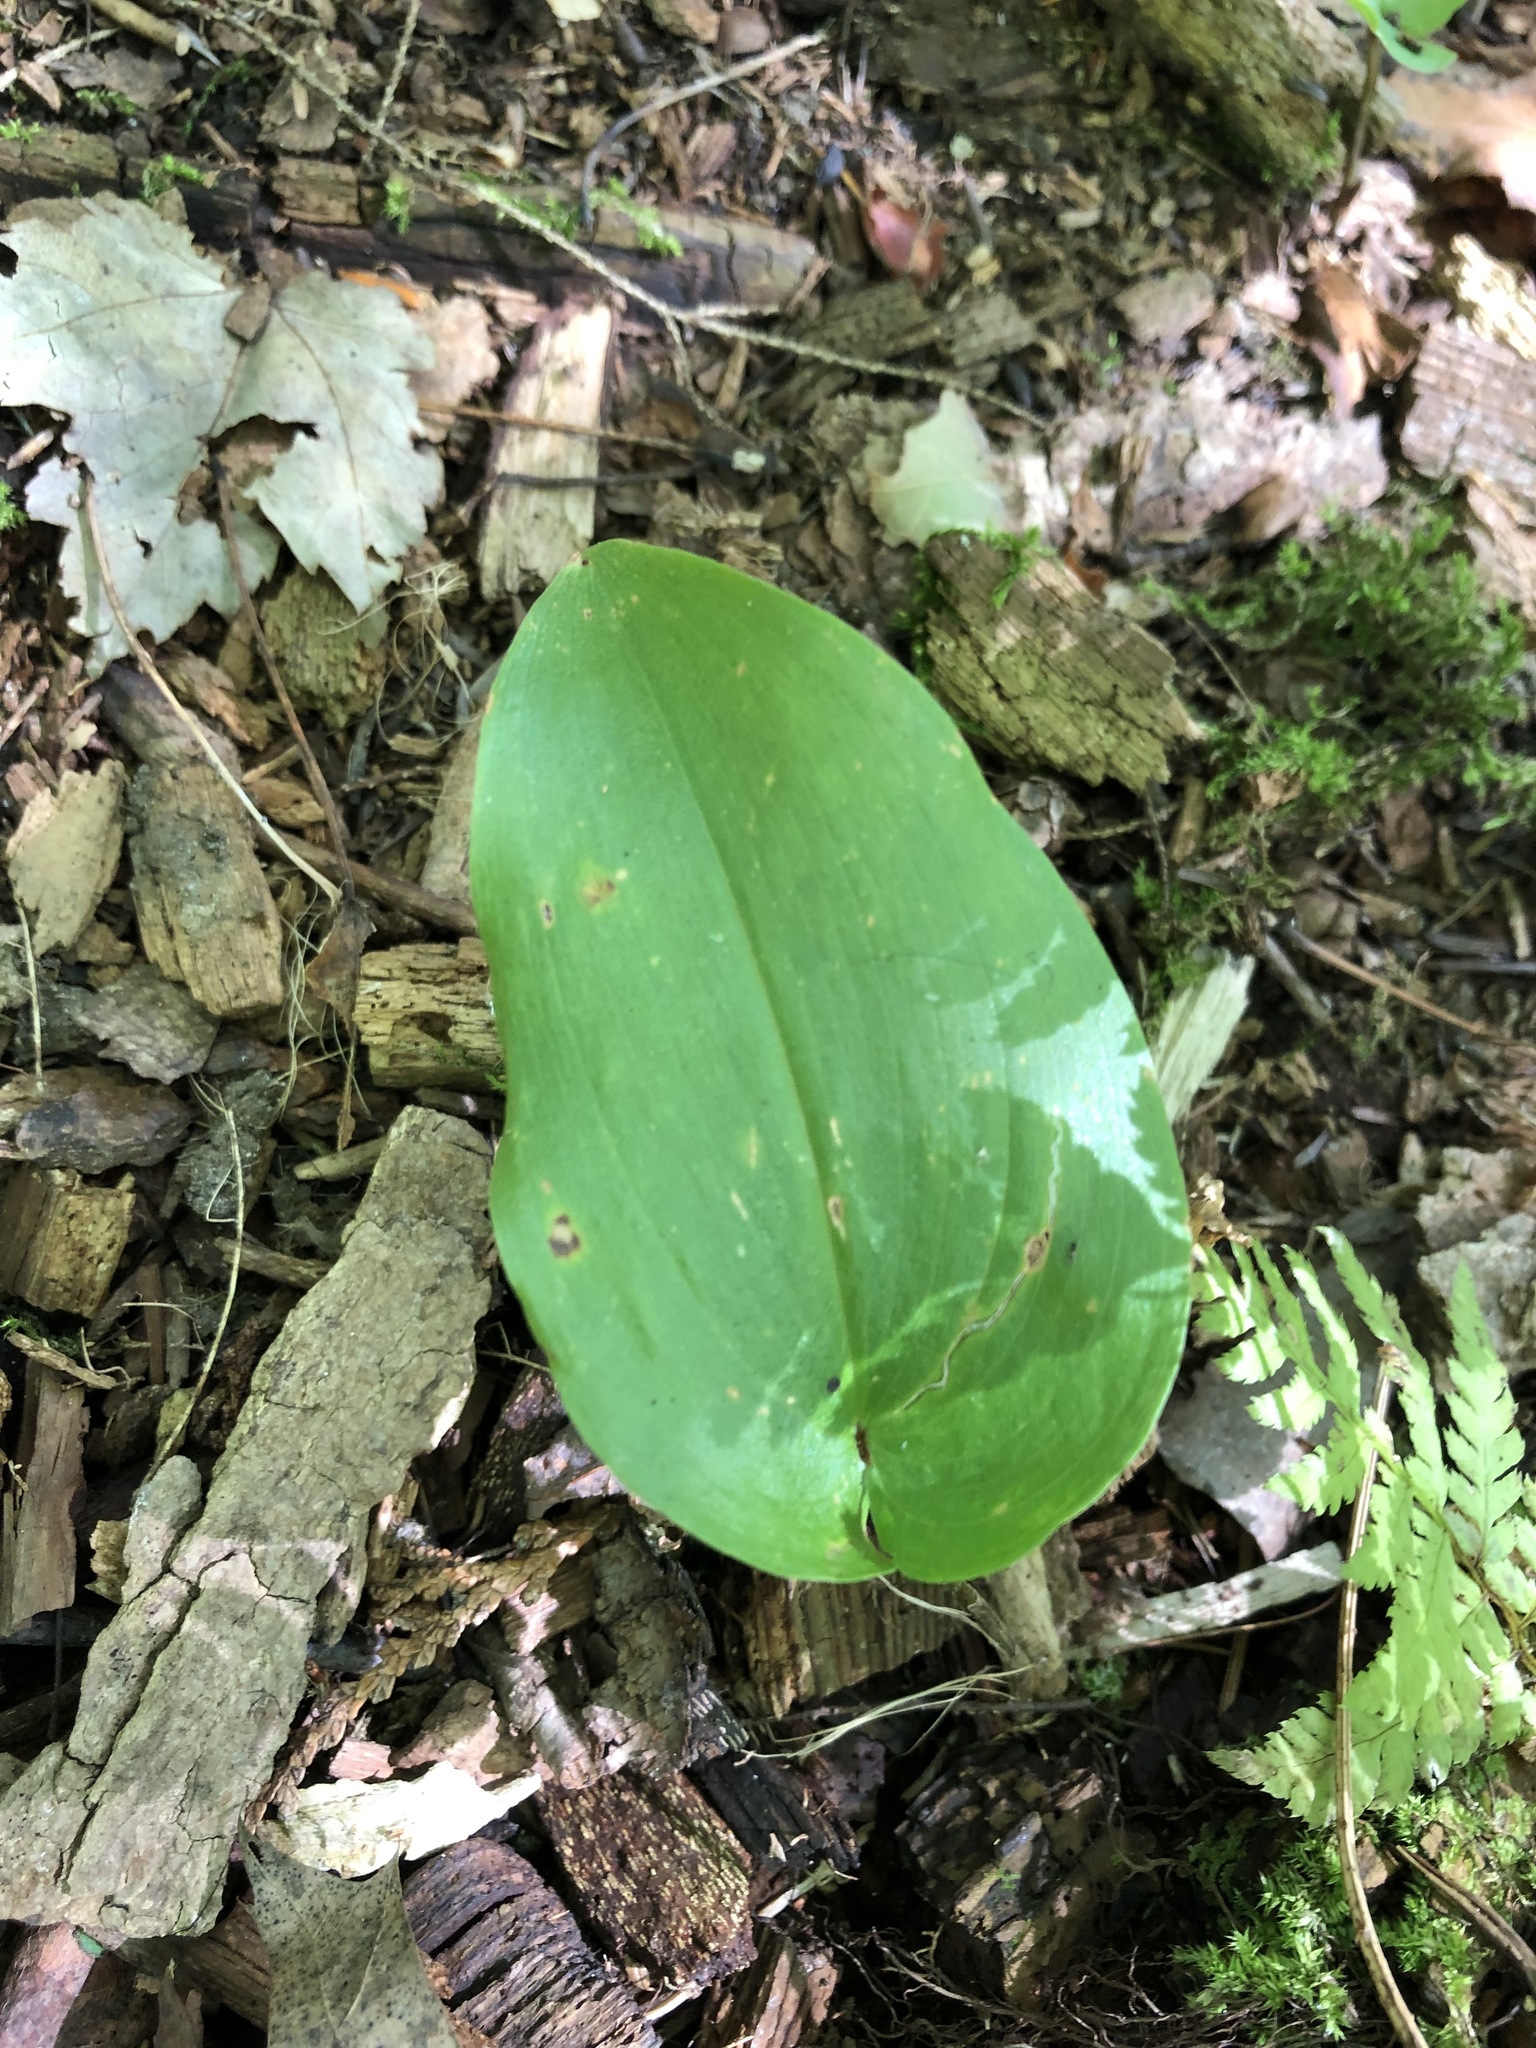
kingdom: Plantae
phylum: Tracheophyta
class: Liliopsida
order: Asparagales
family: Asparagaceae
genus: Maianthemum
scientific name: Maianthemum canadense
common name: False lily-of-the-valley
